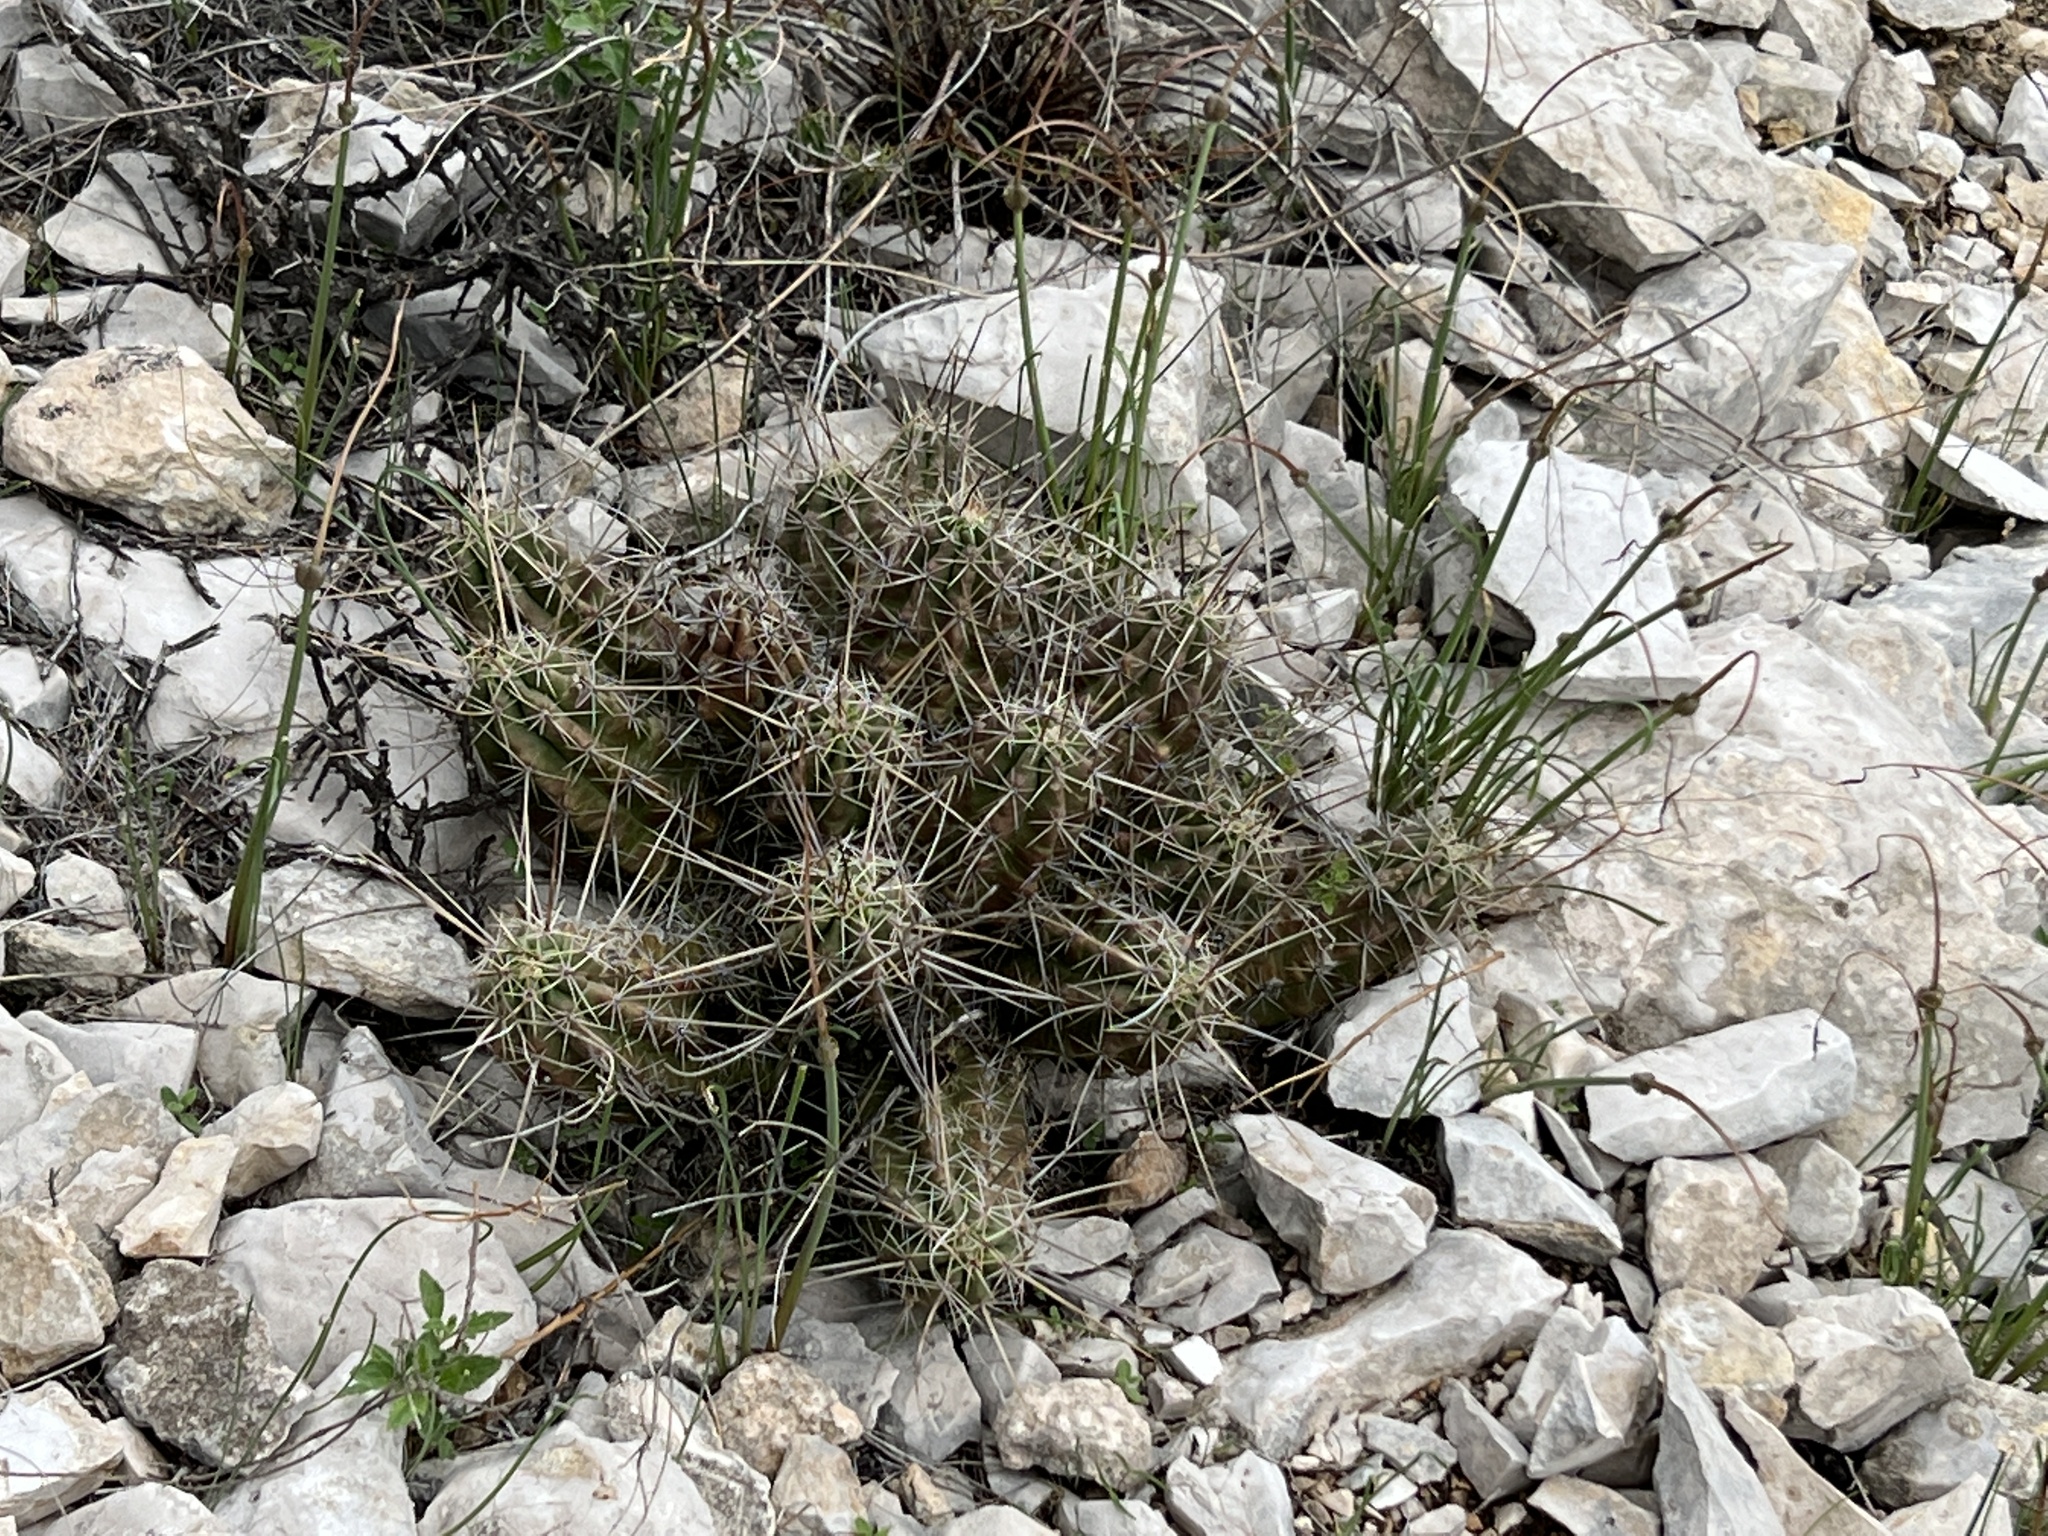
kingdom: Plantae
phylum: Tracheophyta
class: Magnoliopsida
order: Caryophyllales
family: Cactaceae
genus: Echinocereus
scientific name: Echinocereus enneacanthus
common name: Pitaya
